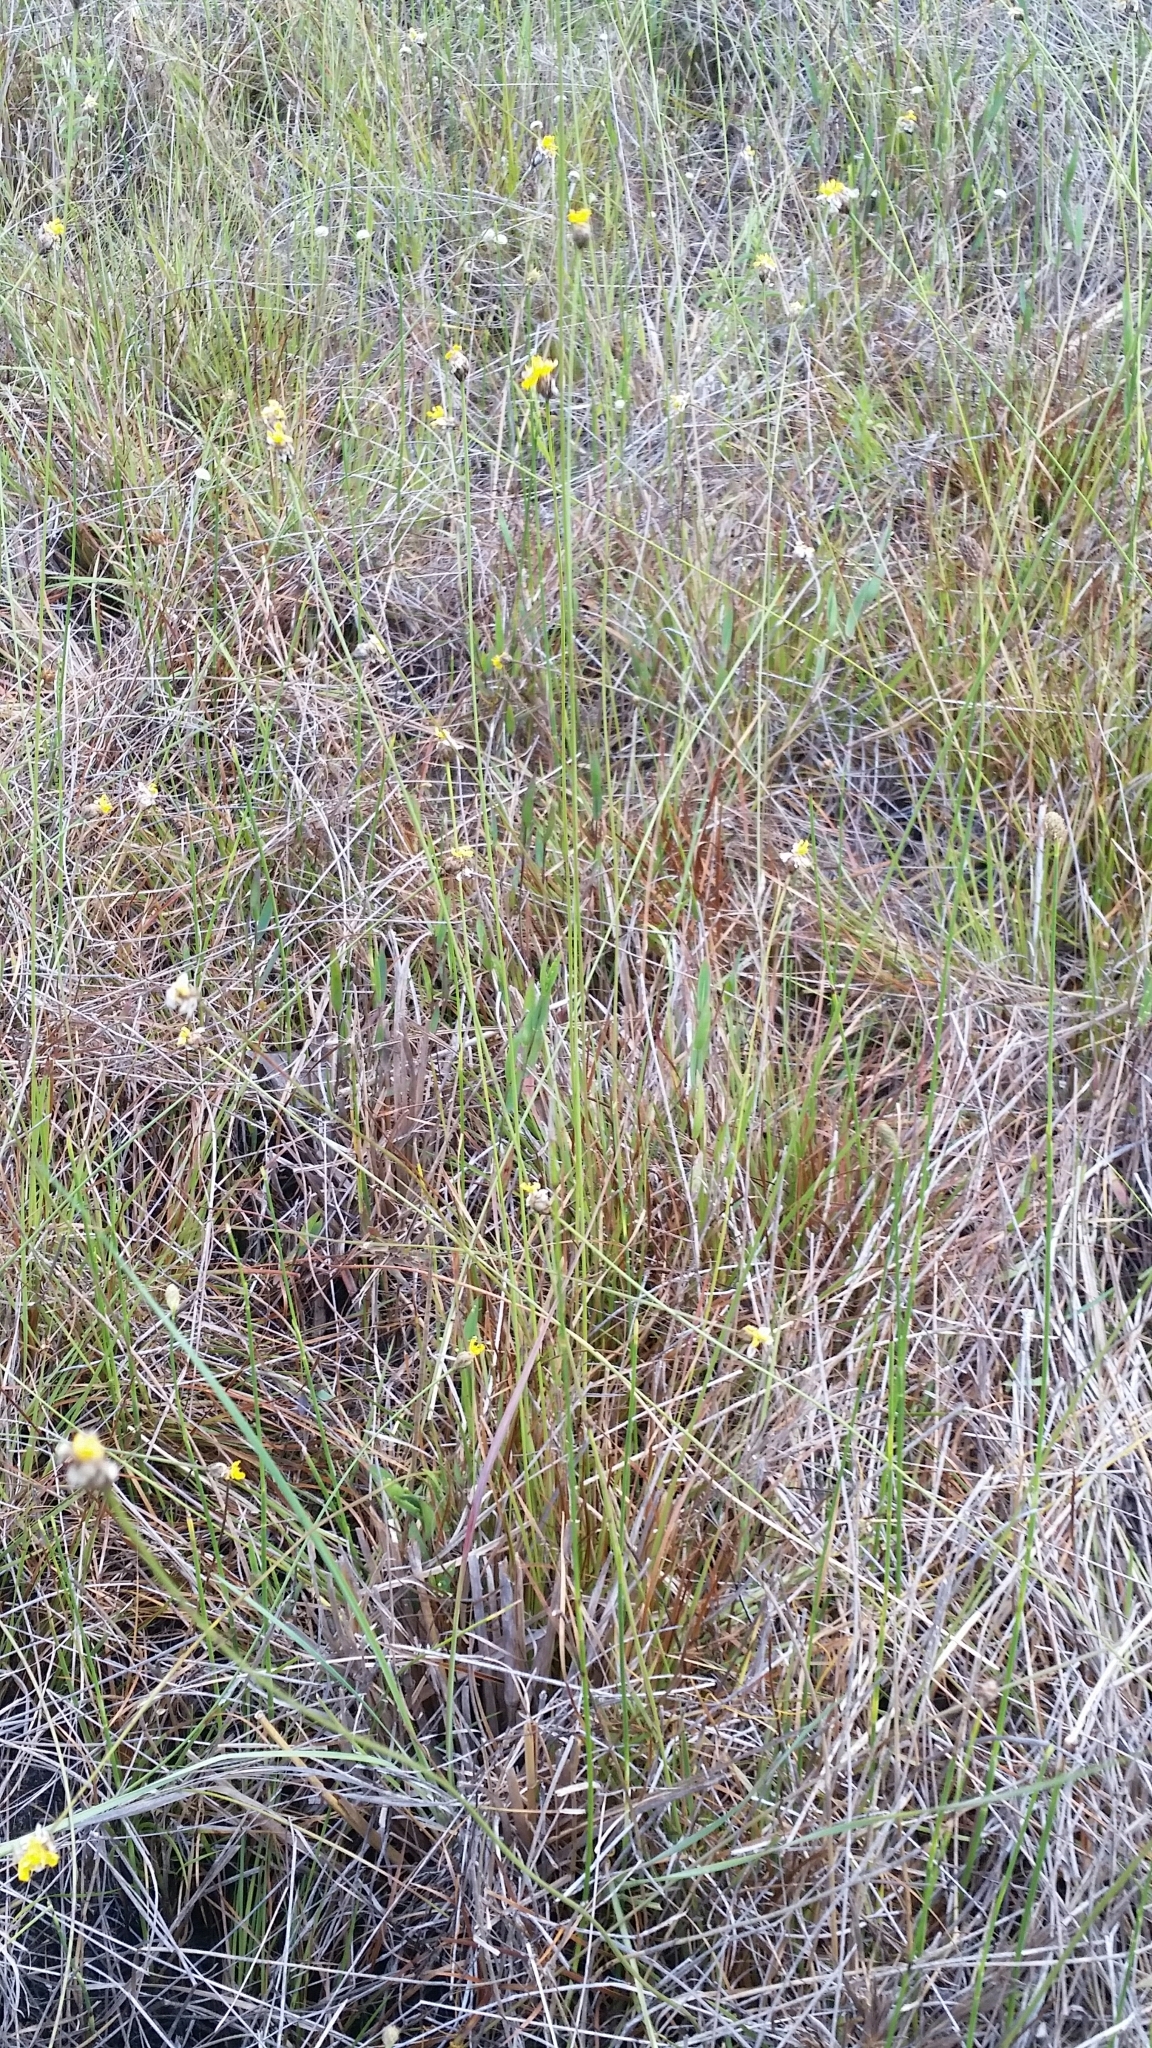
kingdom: Plantae
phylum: Tracheophyta
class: Liliopsida
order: Poales
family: Xyridaceae
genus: Xyris
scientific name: Xyris elliottii
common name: Elliot's yelloweyed grass
